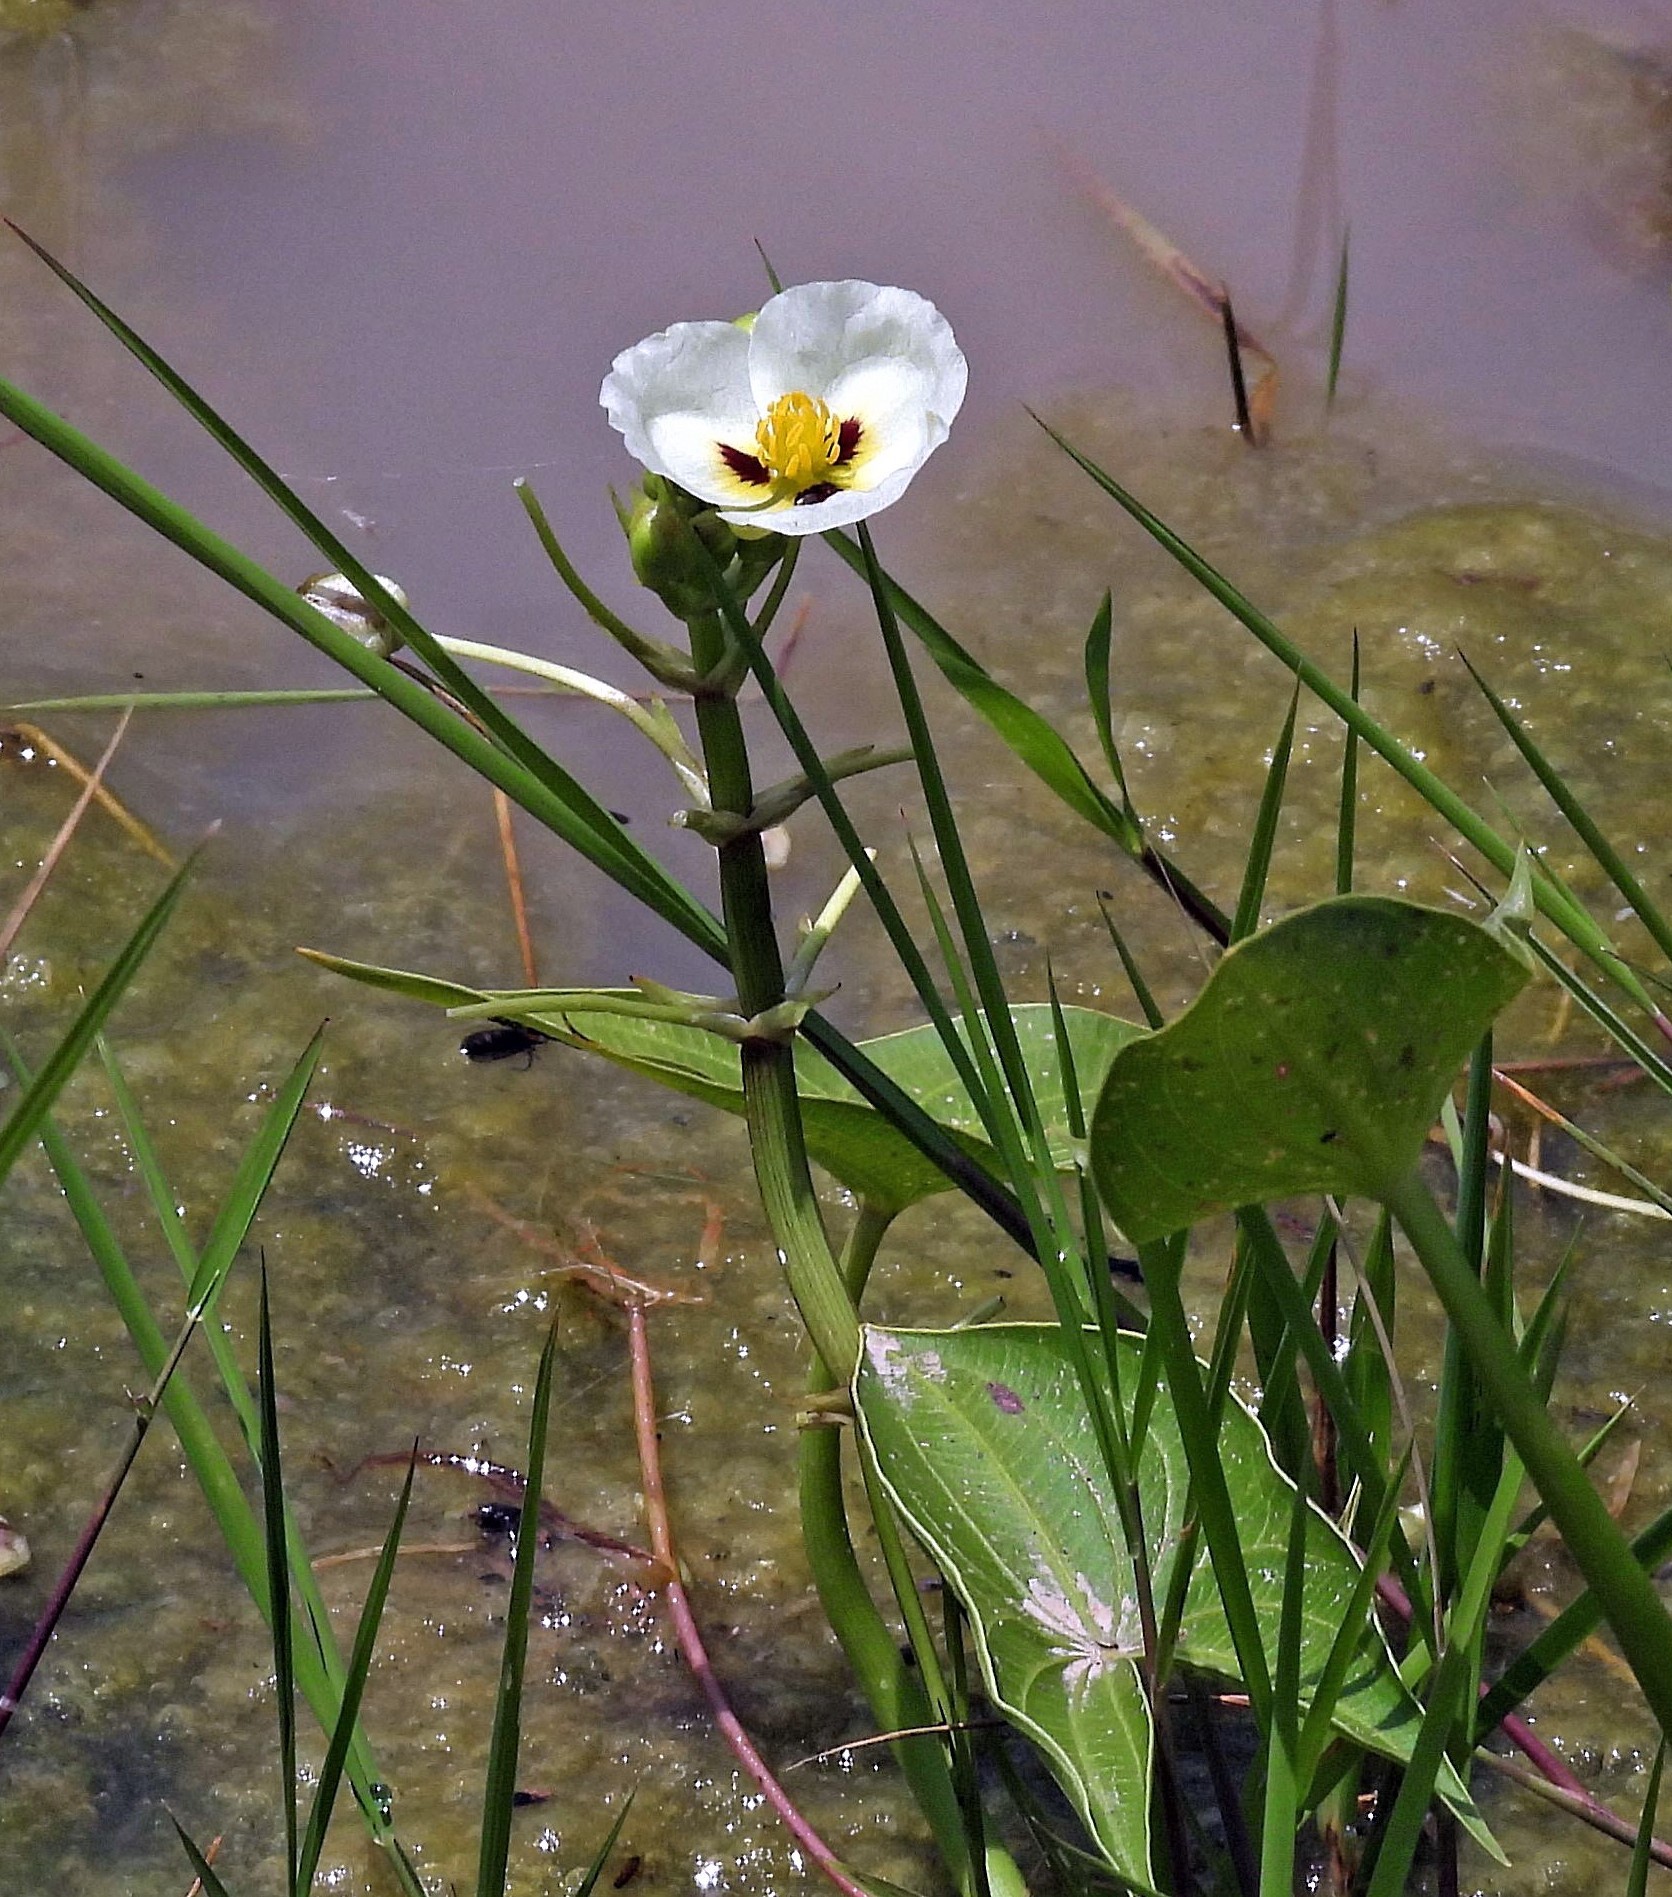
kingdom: Plantae
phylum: Tracheophyta
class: Liliopsida
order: Alismatales
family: Alismataceae
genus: Sagittaria
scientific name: Sagittaria montevidensis
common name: Giant arrowhead
